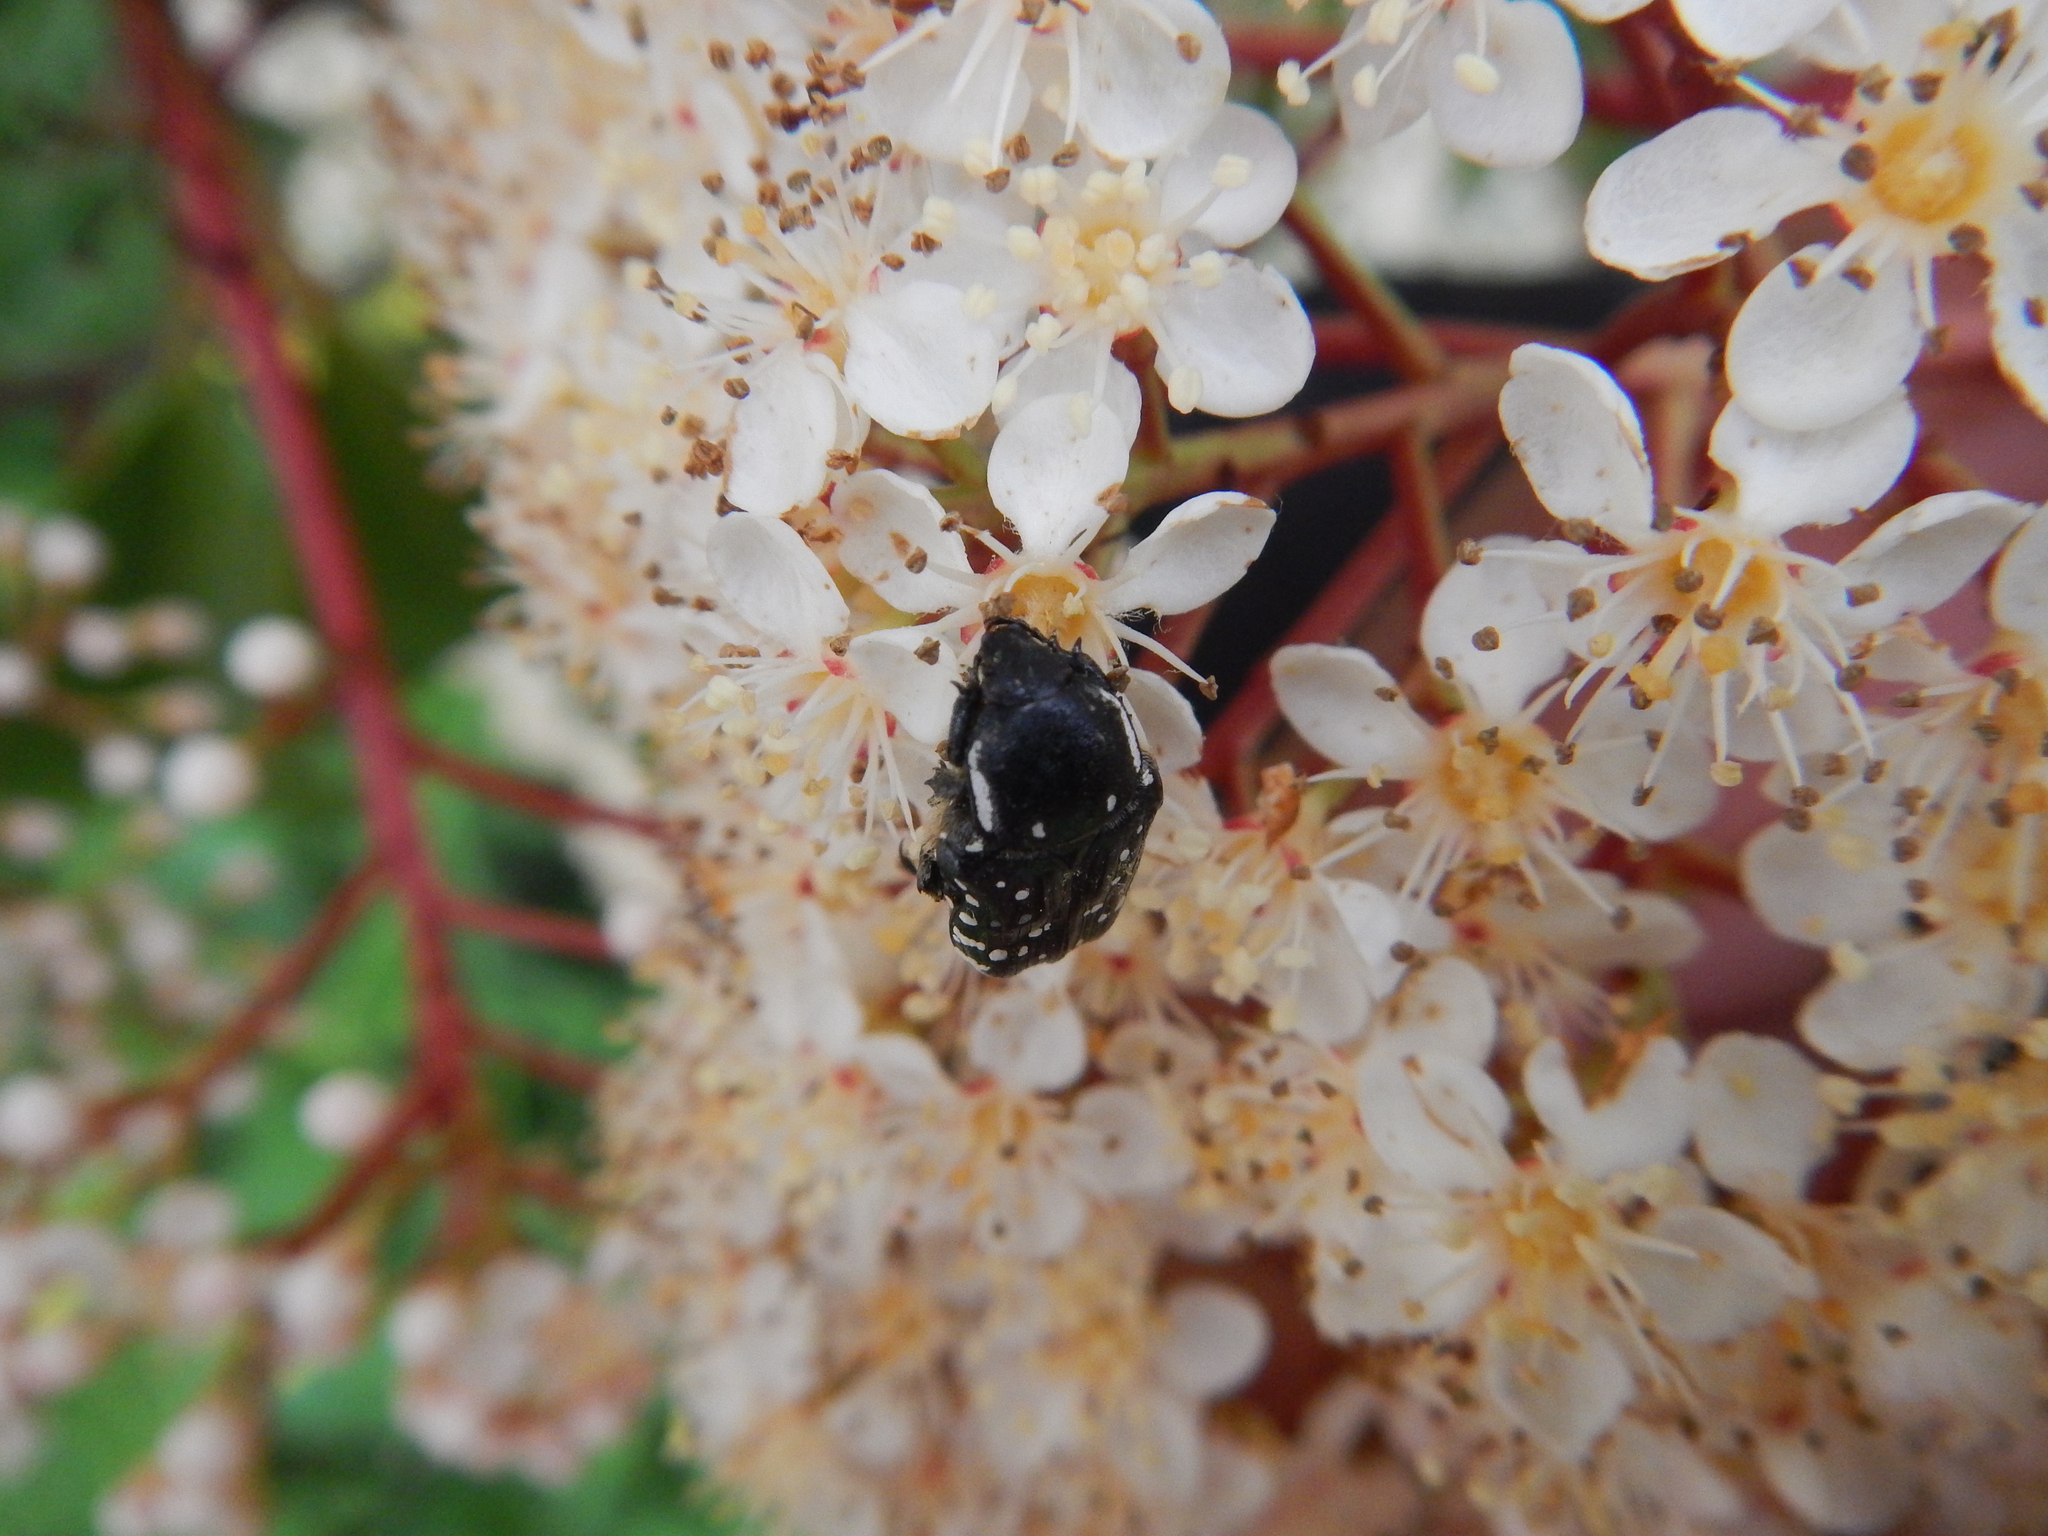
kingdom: Animalia
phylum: Arthropoda
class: Insecta
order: Coleoptera
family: Scarabaeidae
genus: Oxythyrea
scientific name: Oxythyrea funesta
